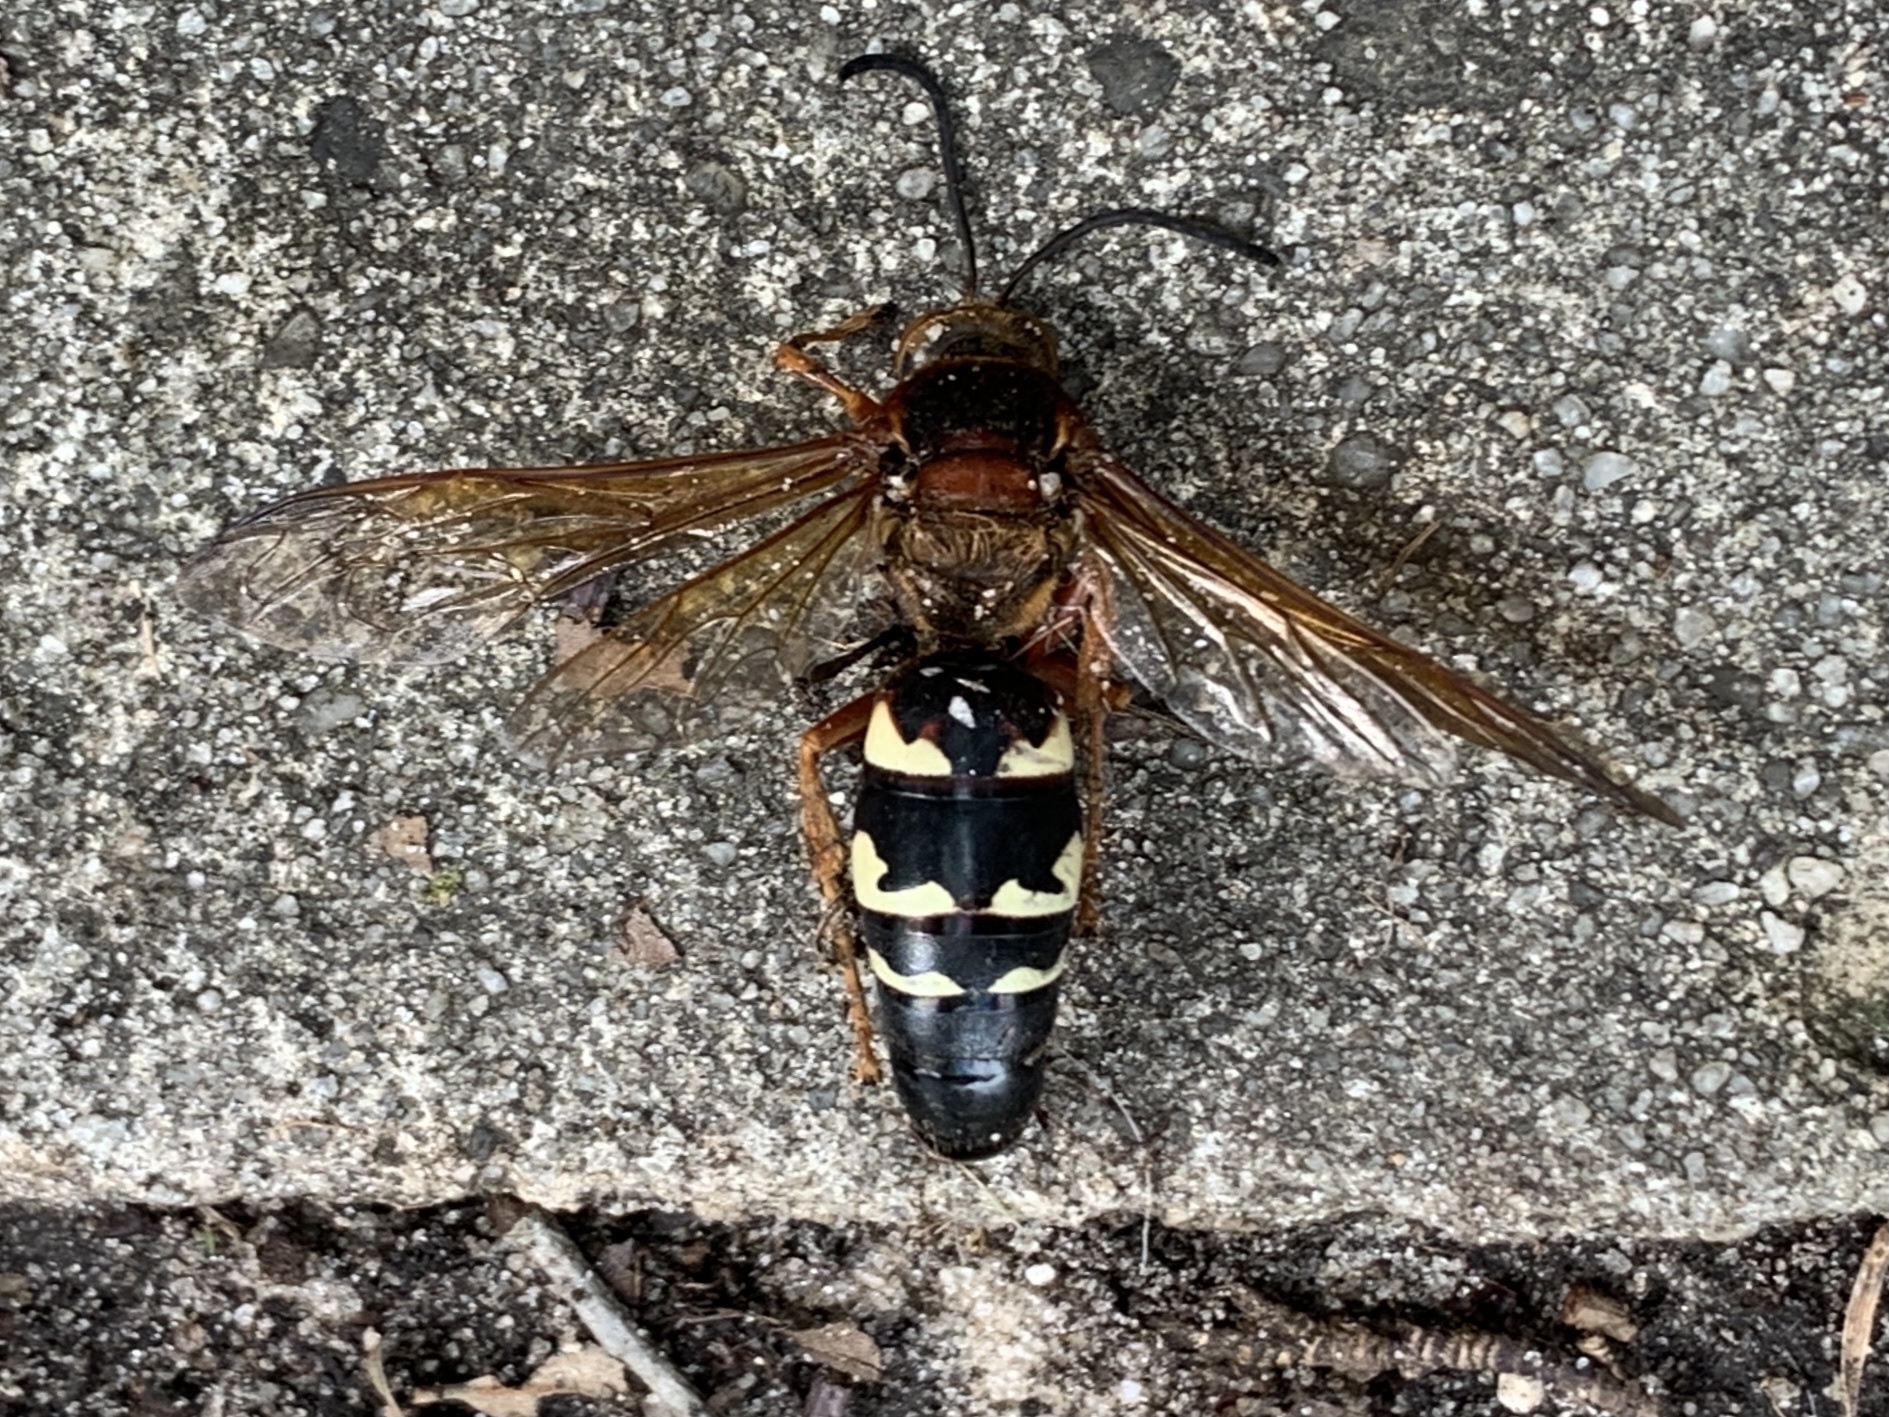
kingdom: Animalia
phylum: Arthropoda
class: Insecta
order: Hymenoptera
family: Crabronidae
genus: Sphecius
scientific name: Sphecius speciosus
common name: Cicada killer
